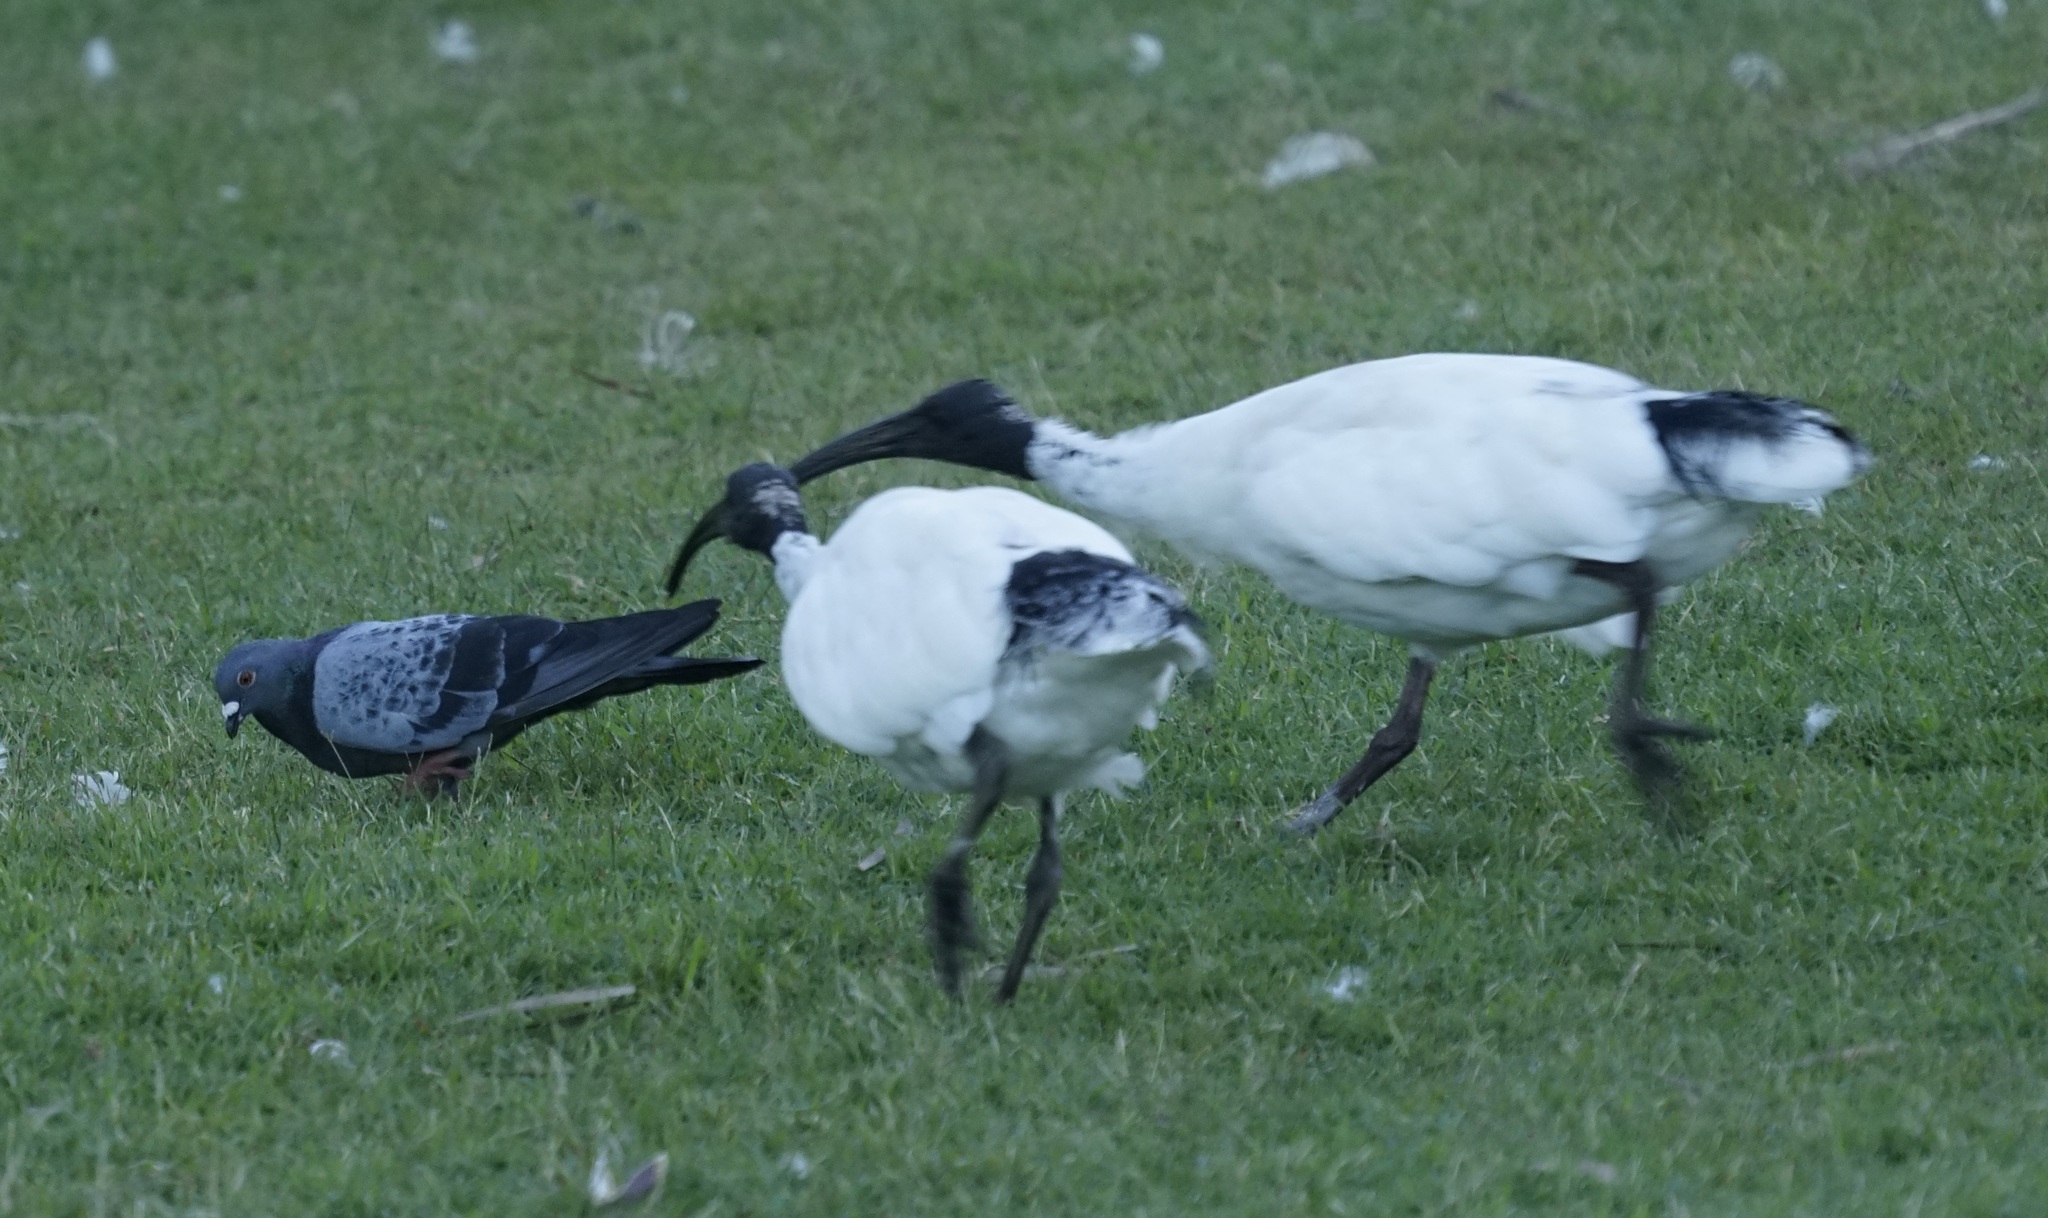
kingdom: Animalia
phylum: Chordata
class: Aves
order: Columbiformes
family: Columbidae
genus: Columba
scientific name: Columba livia
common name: Rock pigeon
